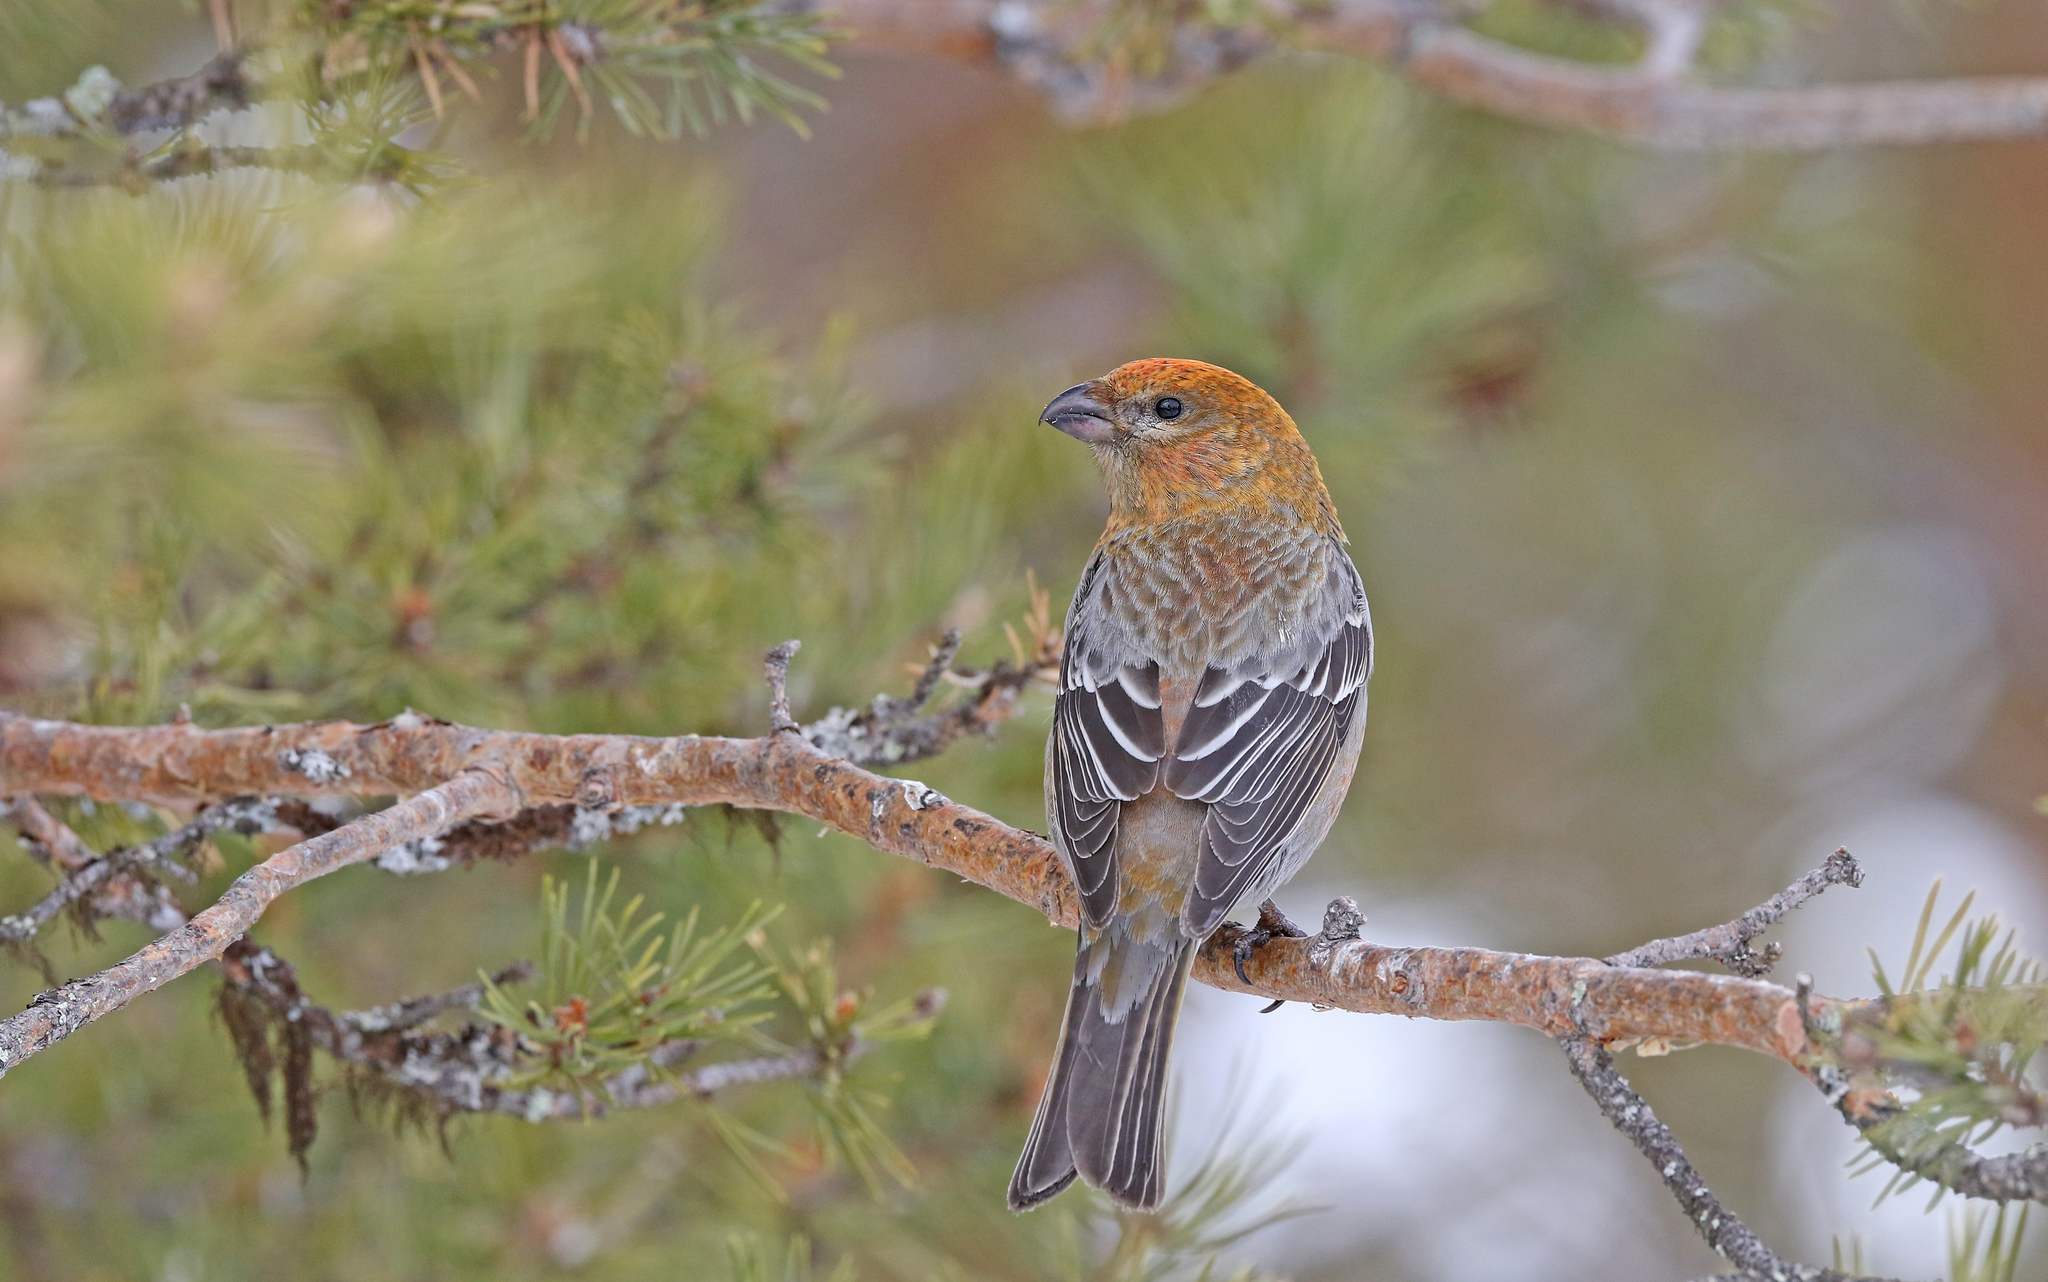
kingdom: Animalia
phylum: Chordata
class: Aves
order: Passeriformes
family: Fringillidae
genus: Pinicola
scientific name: Pinicola enucleator
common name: Pine grosbeak
